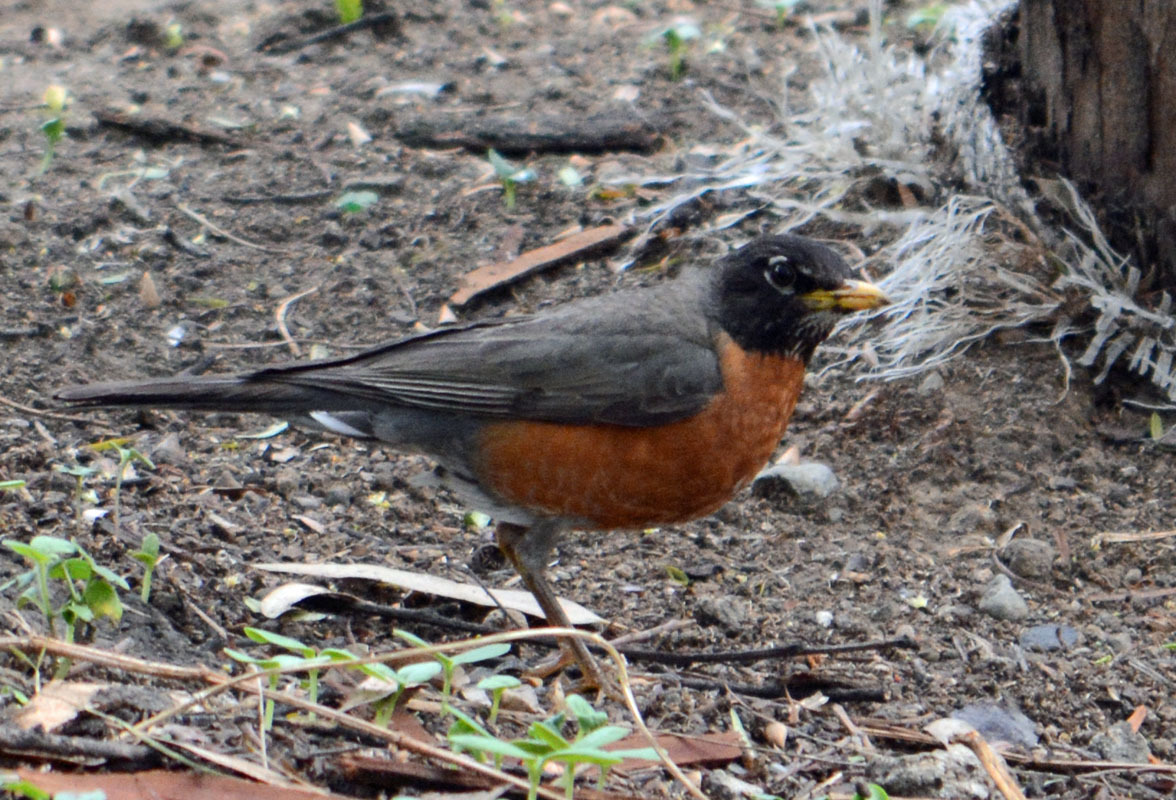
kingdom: Animalia
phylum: Chordata
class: Aves
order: Passeriformes
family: Turdidae
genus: Turdus
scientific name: Turdus migratorius
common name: American robin
